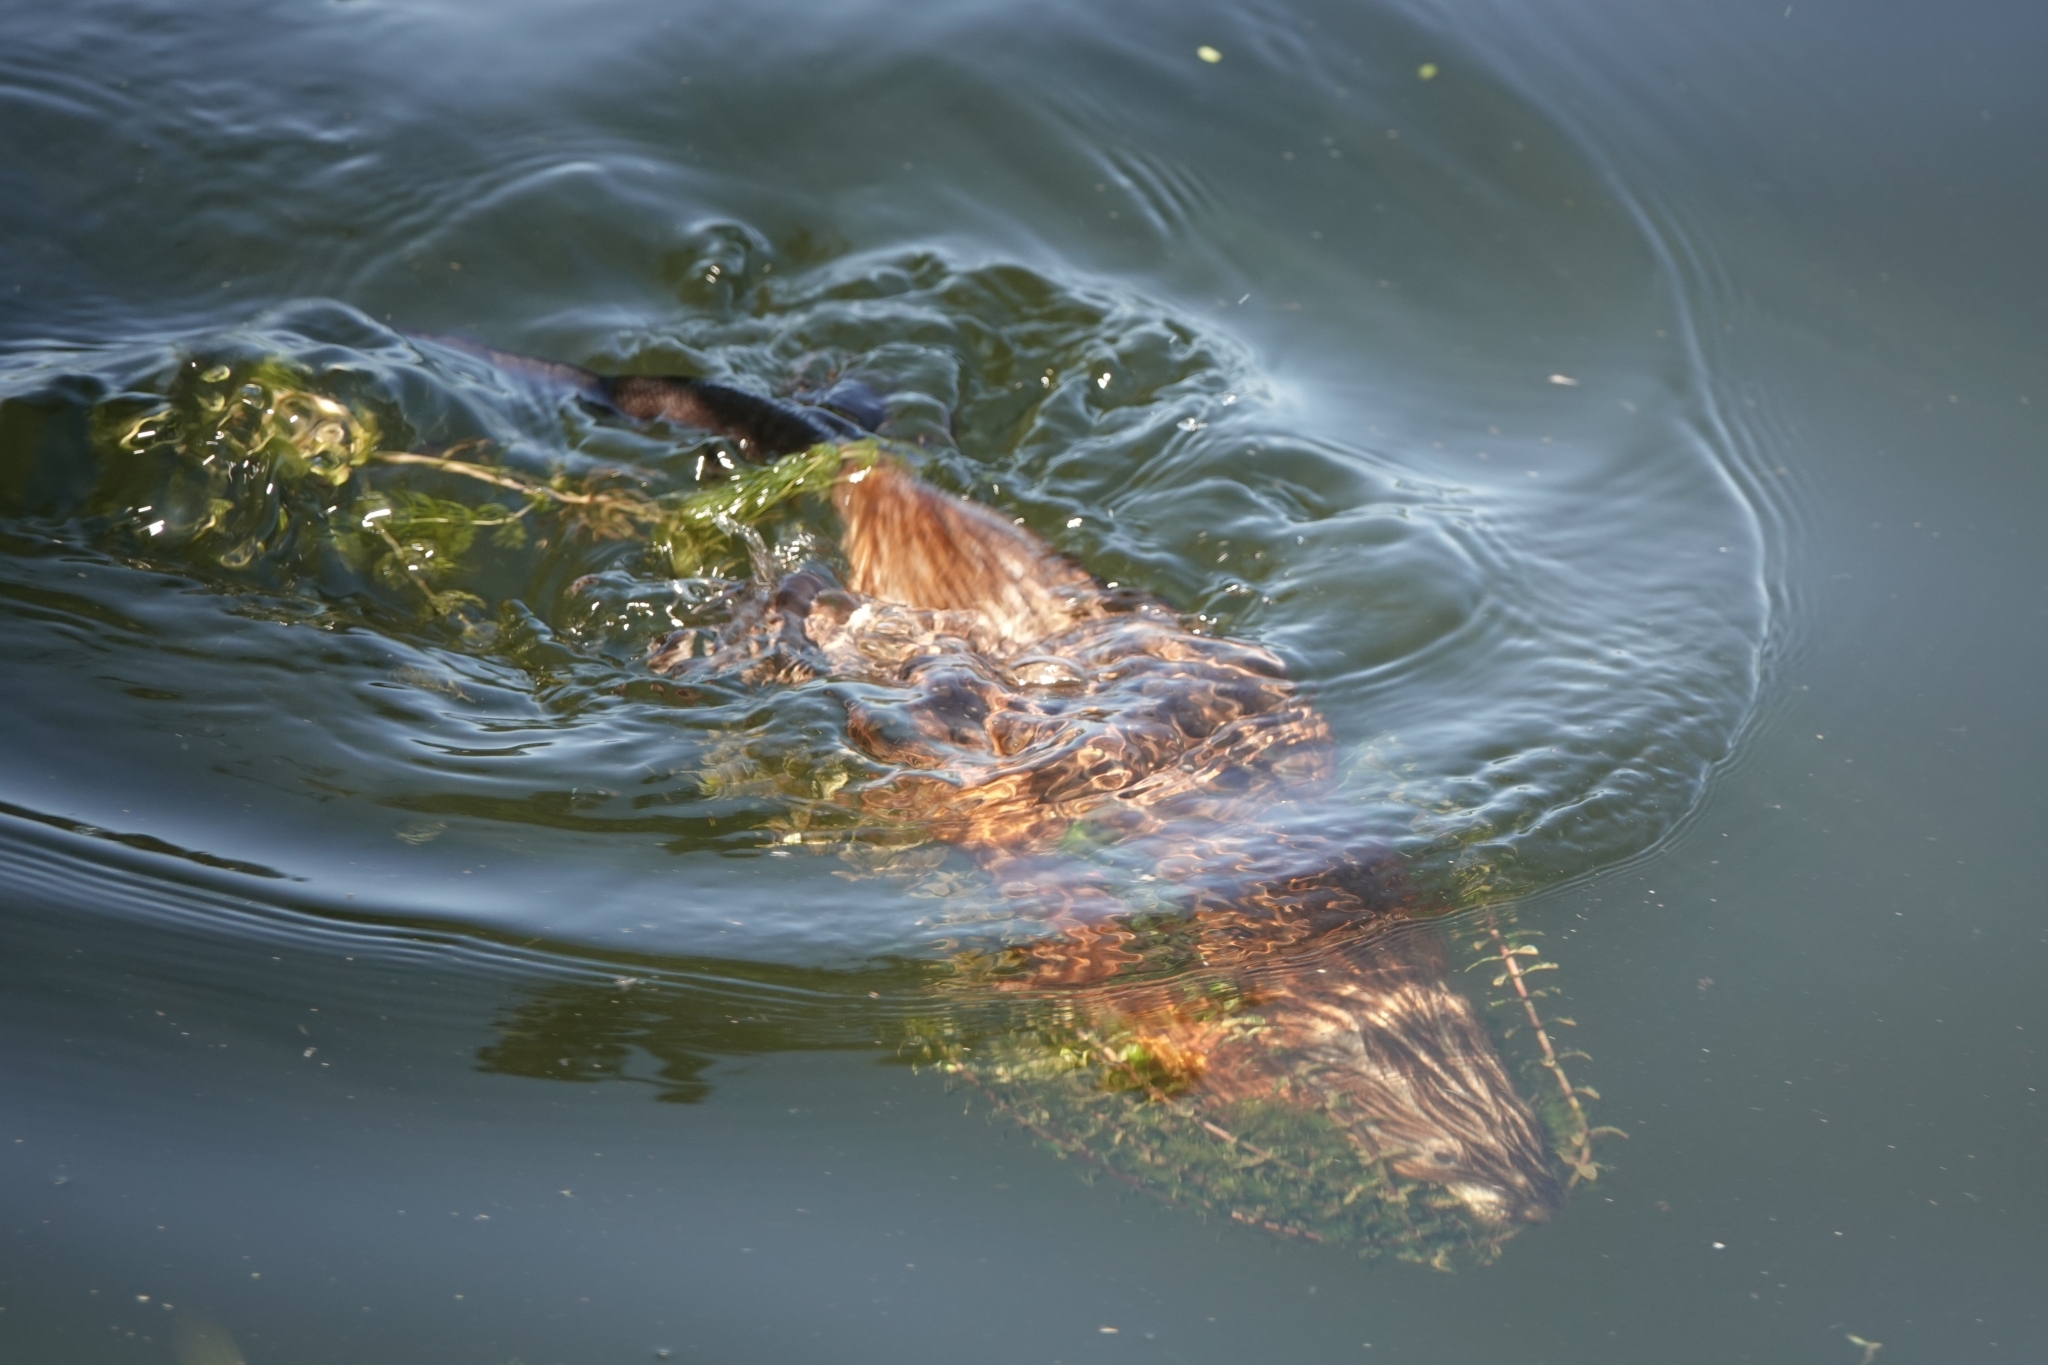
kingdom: Animalia
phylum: Chordata
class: Mammalia
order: Rodentia
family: Cricetidae
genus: Ondatra
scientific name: Ondatra zibethicus
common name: Muskrat
